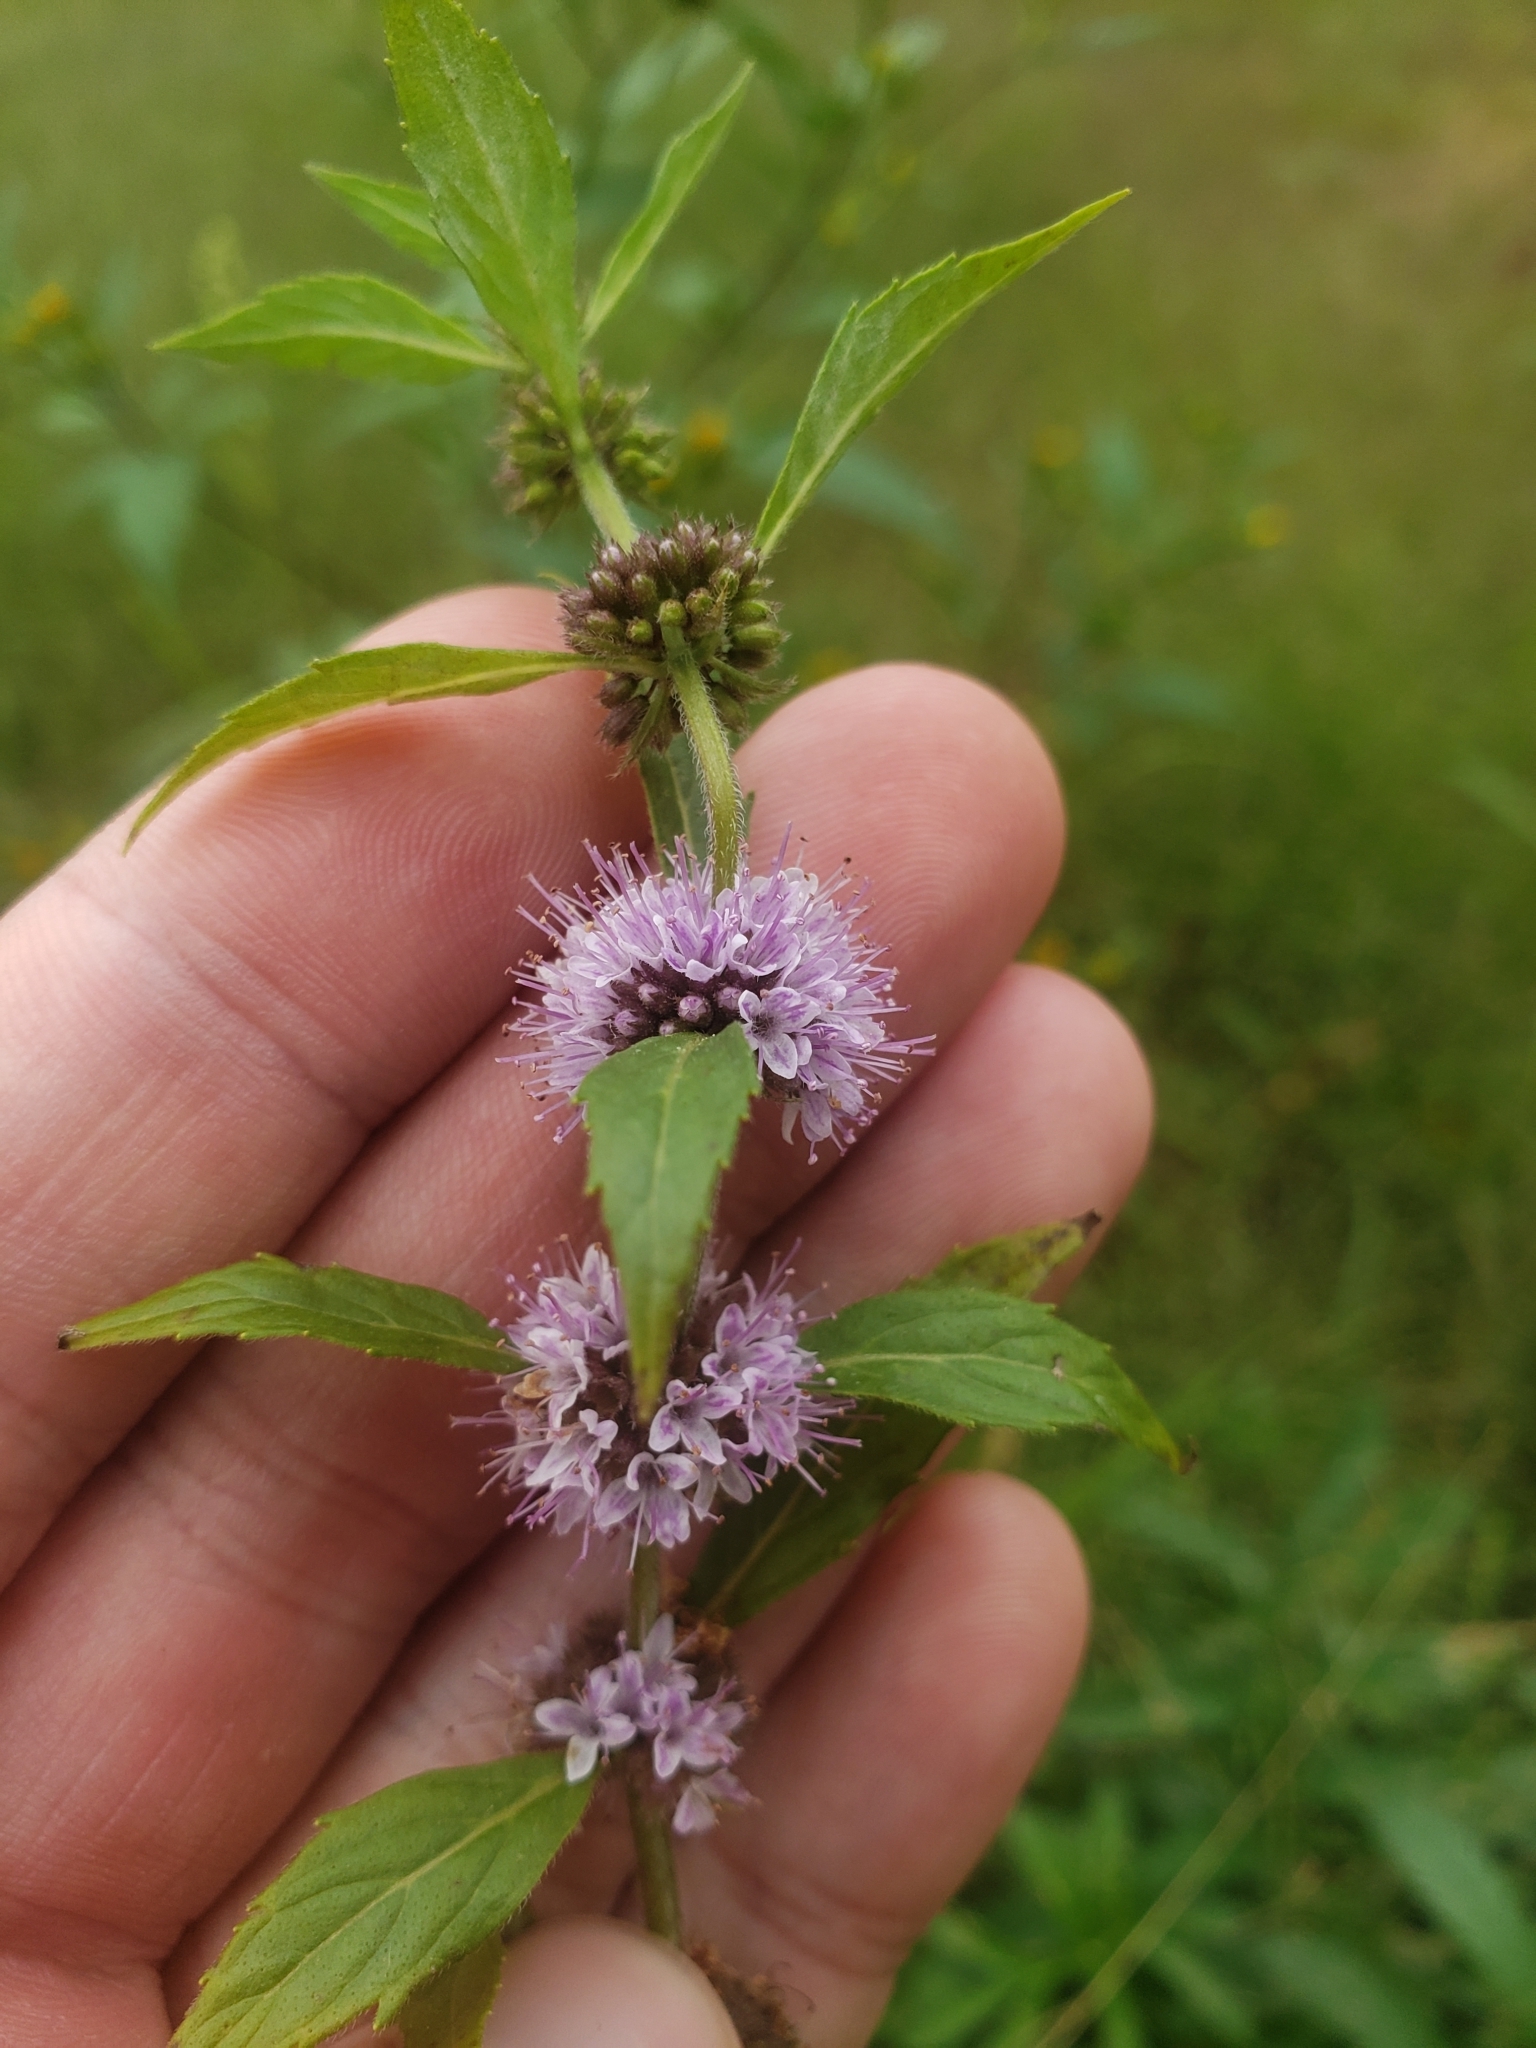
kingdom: Plantae
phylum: Tracheophyta
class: Magnoliopsida
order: Lamiales
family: Lamiaceae
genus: Mentha
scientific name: Mentha canadensis
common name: American corn mint
